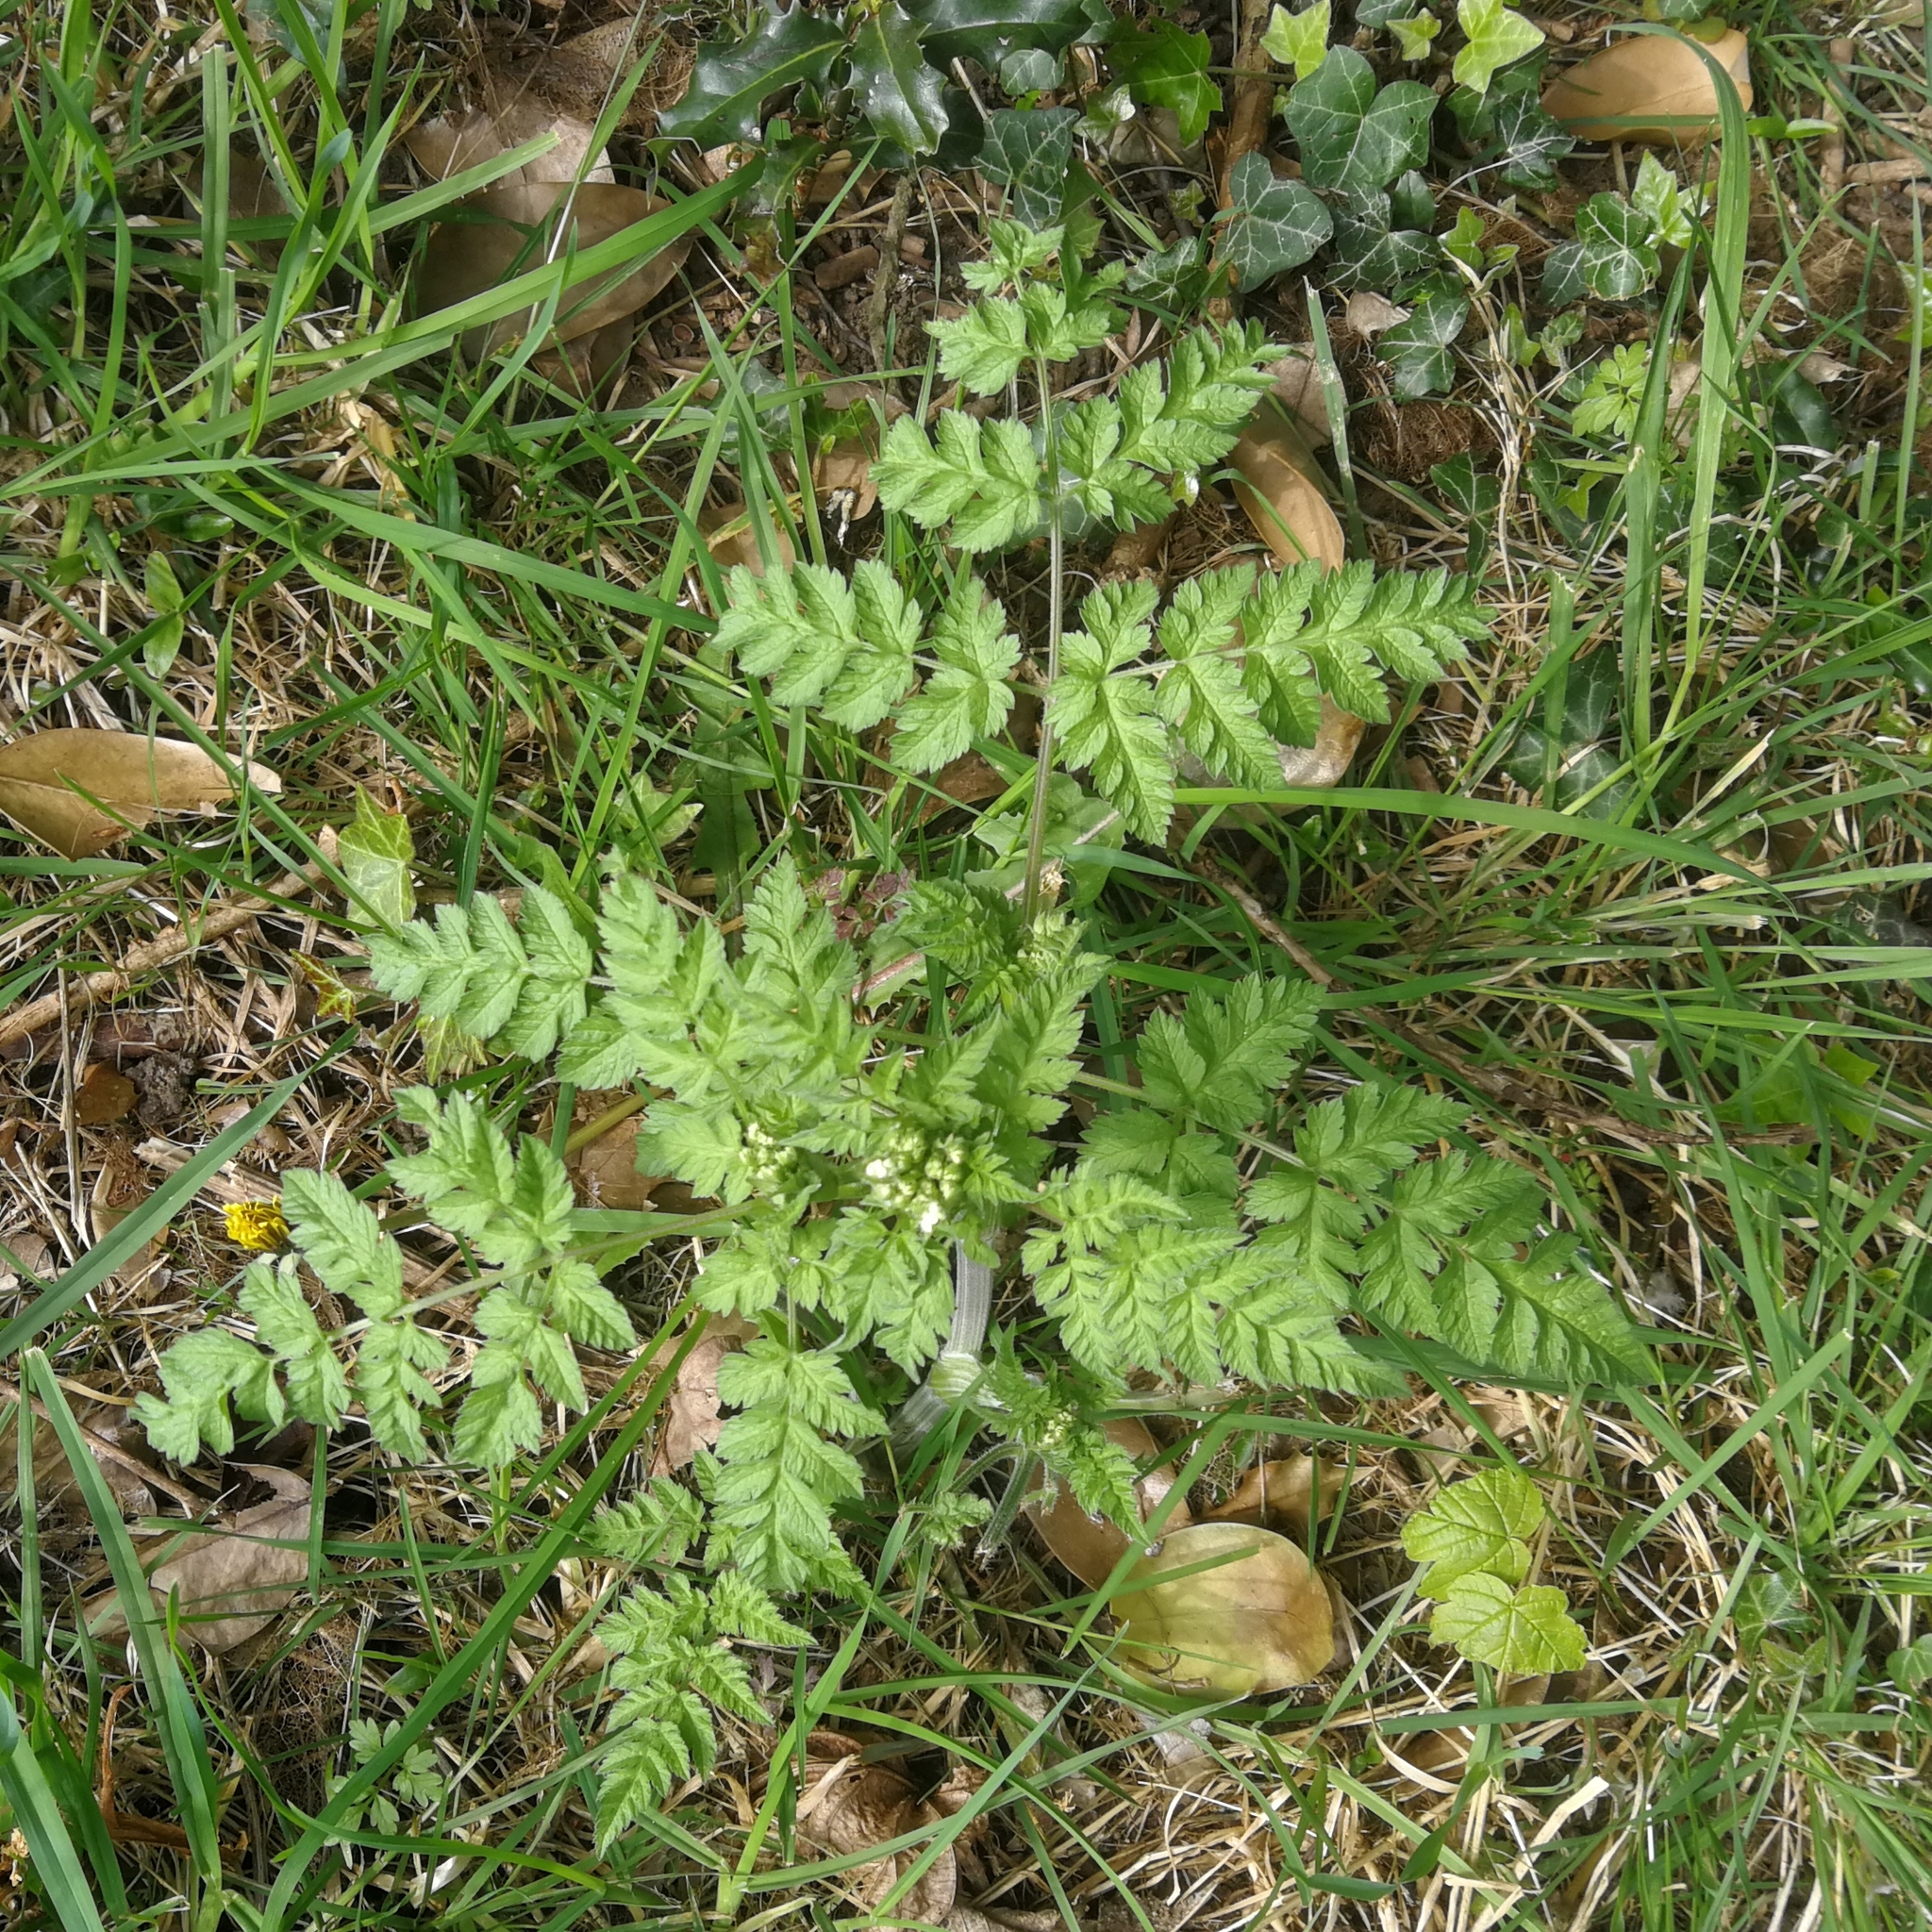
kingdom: Plantae
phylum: Tracheophyta
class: Magnoliopsida
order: Apiales
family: Apiaceae
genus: Anthriscus
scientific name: Anthriscus sylvestris
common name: Cow parsley
